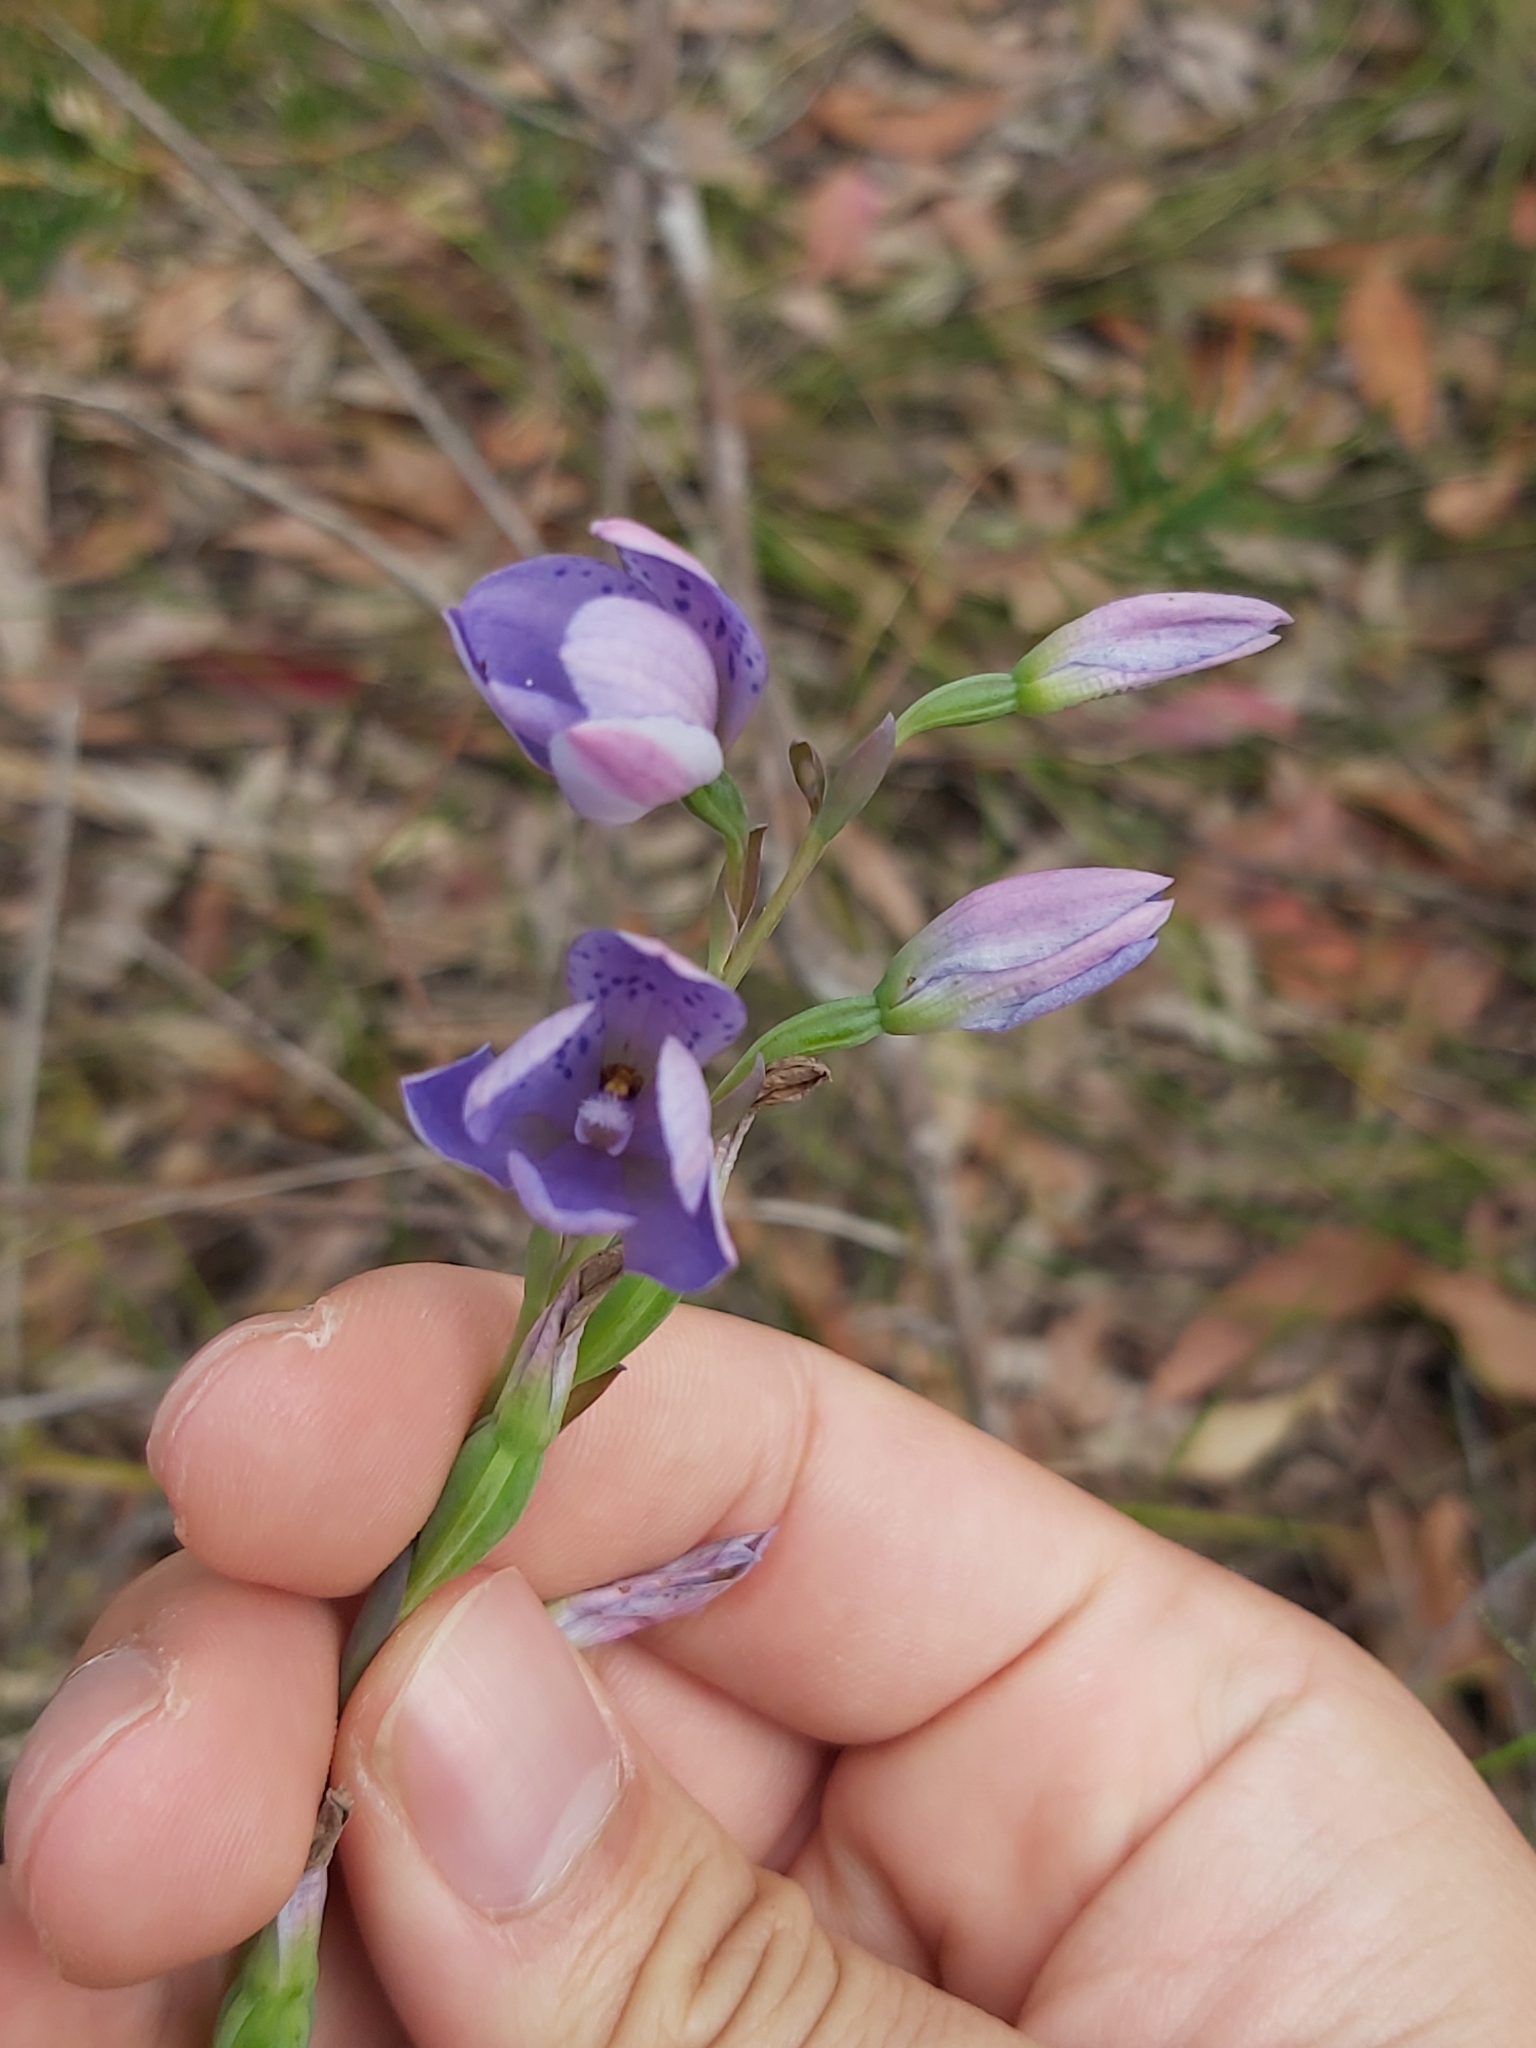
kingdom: Plantae
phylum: Tracheophyta
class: Liliopsida
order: Asparagales
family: Orchidaceae
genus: Thelymitra
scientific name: Thelymitra ixioides
